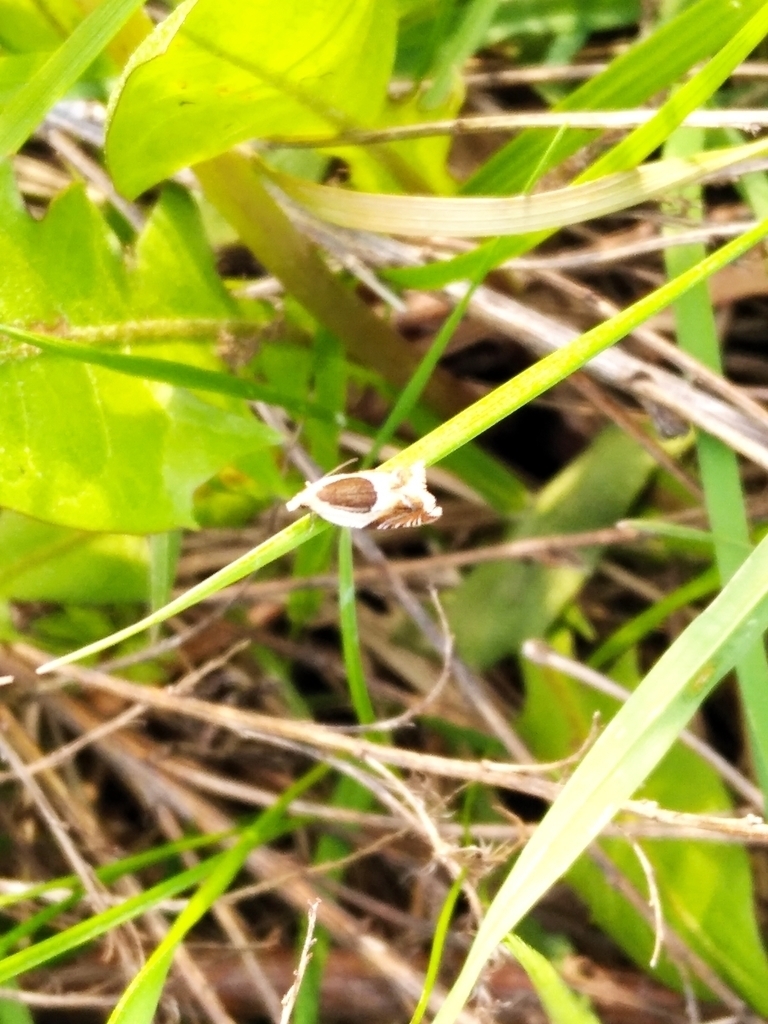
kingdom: Animalia
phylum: Arthropoda
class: Insecta
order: Lepidoptera
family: Tortricidae
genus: Ancylis
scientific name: Ancylis badiana
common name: Common roller
